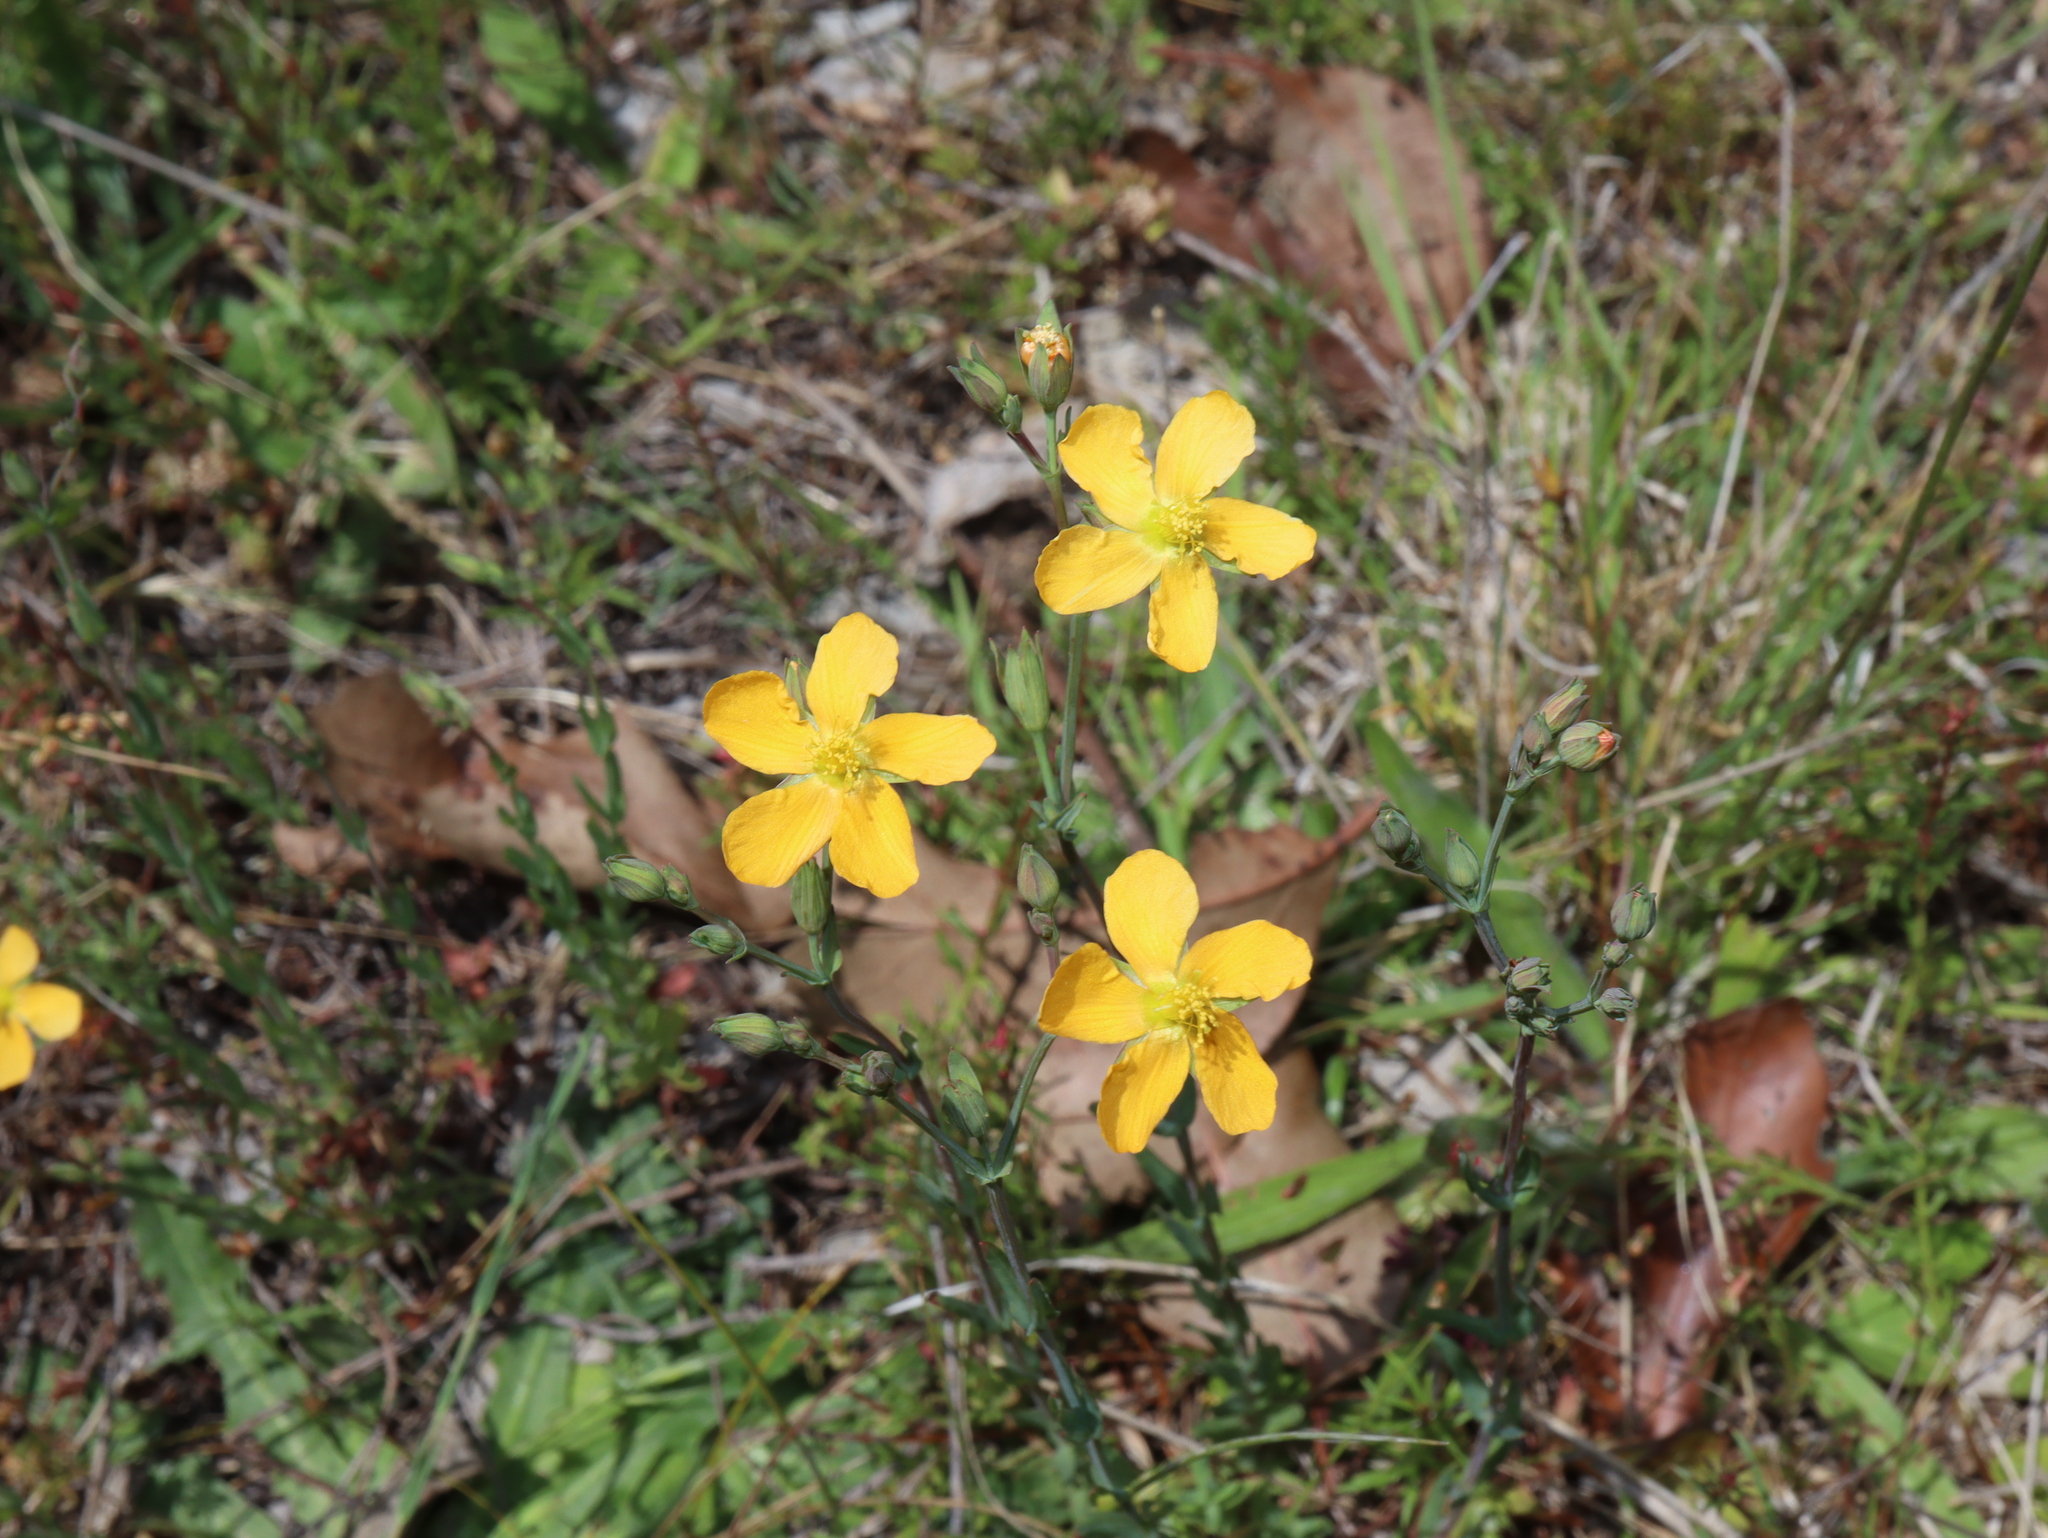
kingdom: Plantae
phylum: Tracheophyta
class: Magnoliopsida
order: Malpighiales
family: Hypericaceae
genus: Hypericum
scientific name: Hypericum gramineum
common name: Grassy st. johnswort
